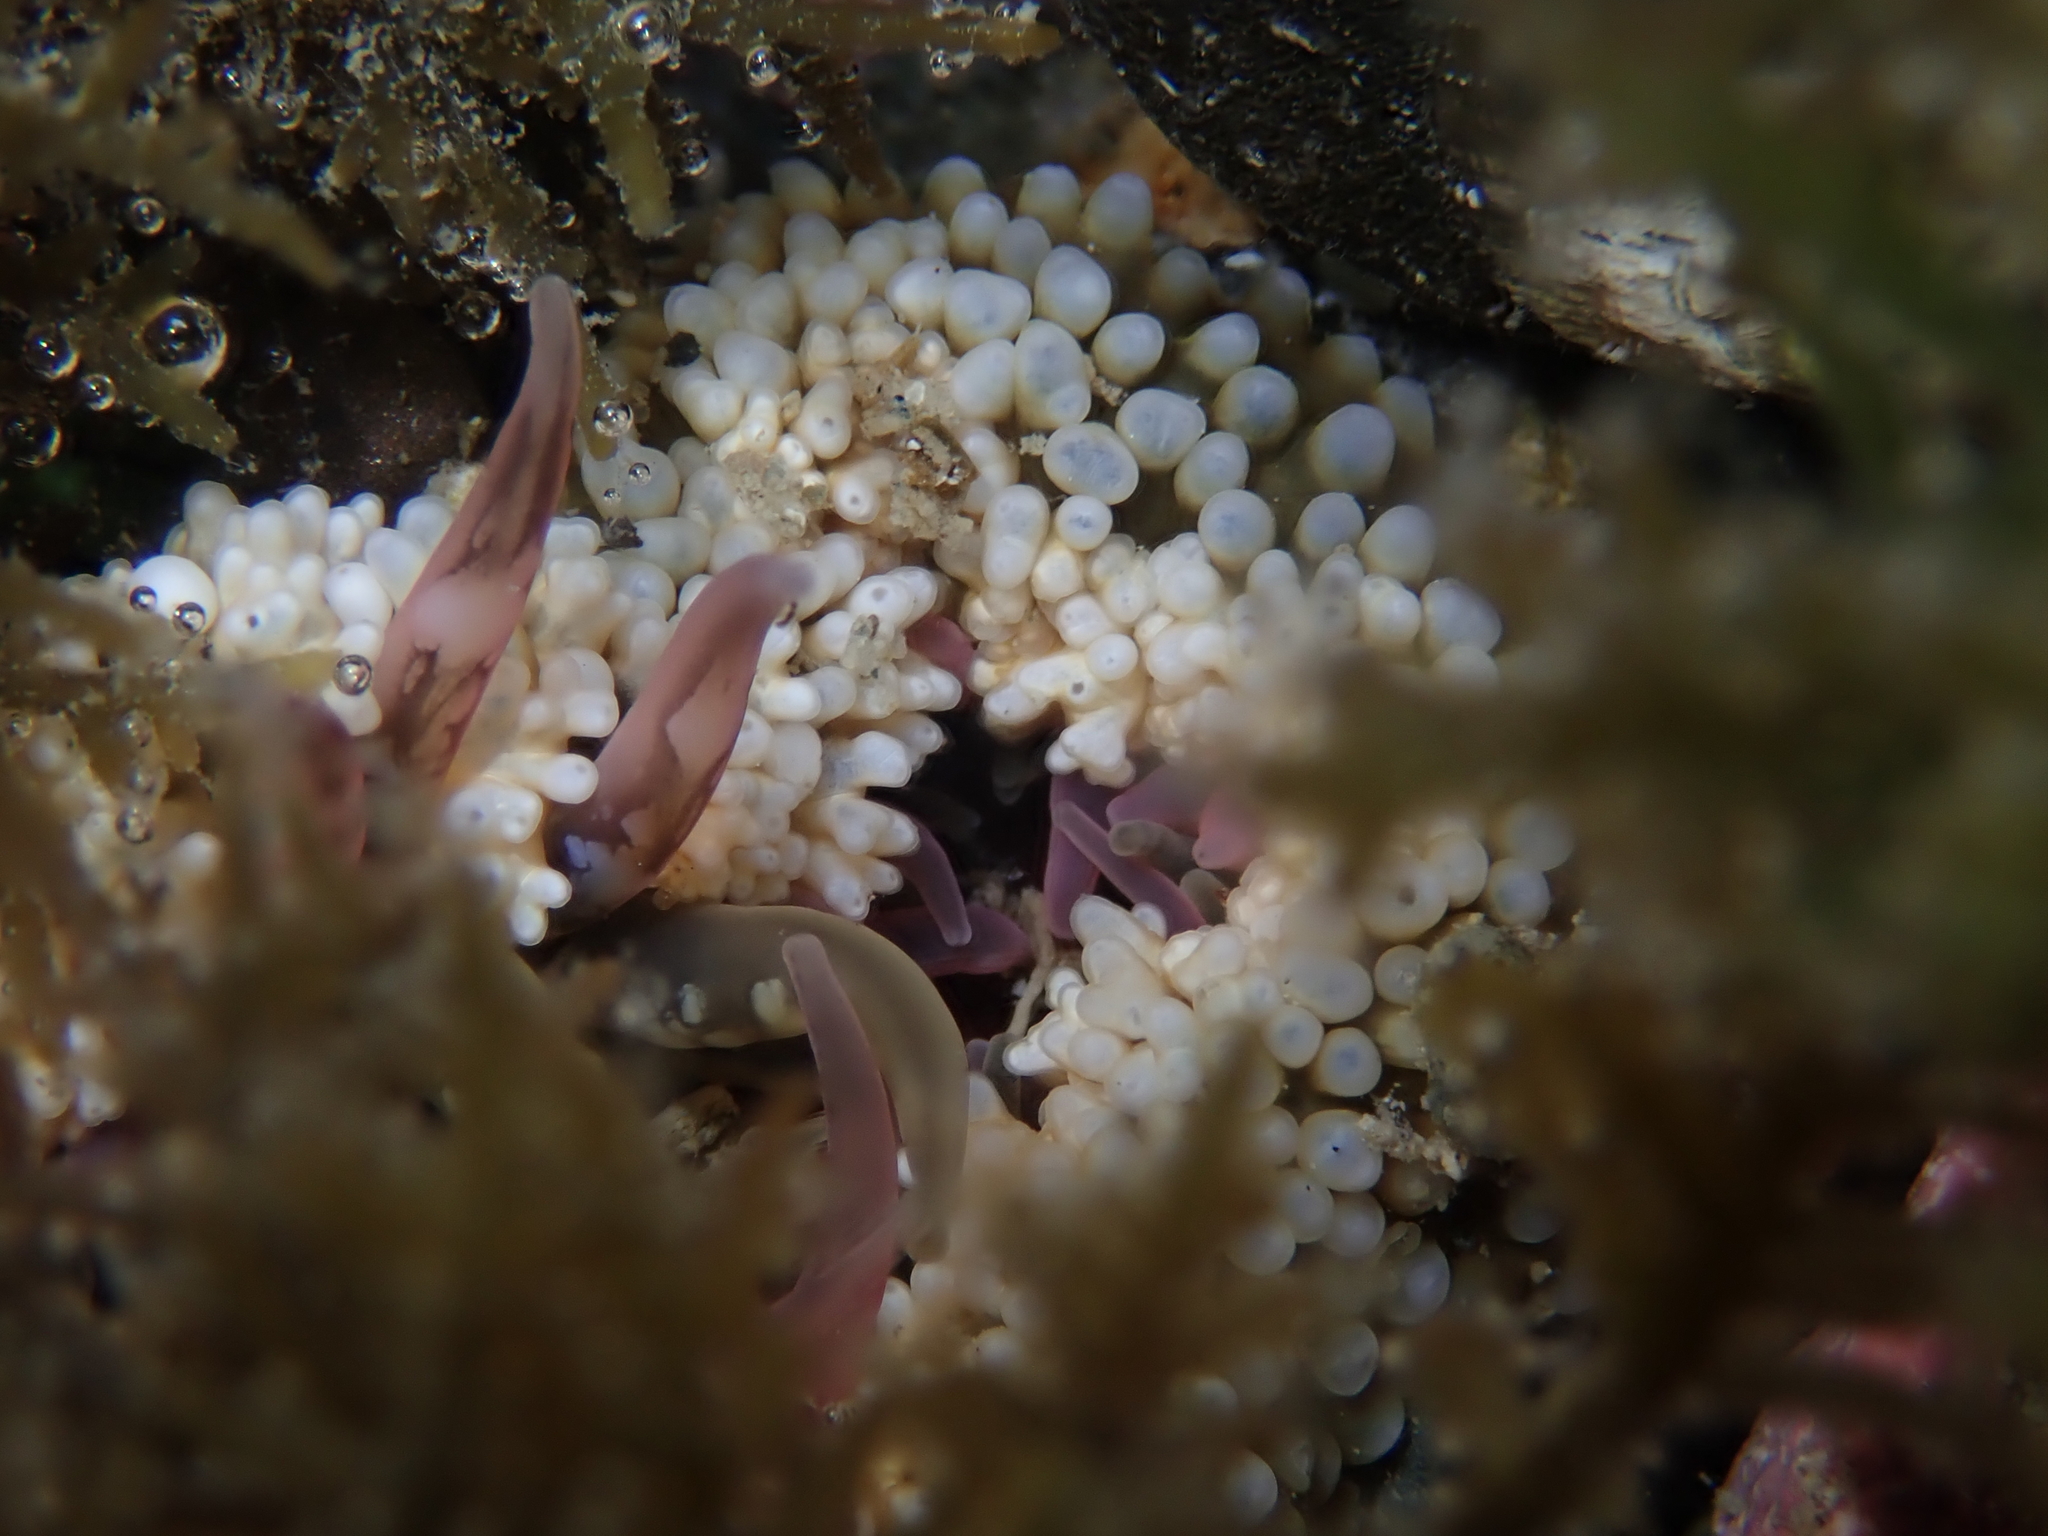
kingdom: Animalia
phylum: Cnidaria
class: Anthozoa
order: Actiniaria
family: Actiniidae
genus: Oulactis
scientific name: Oulactis muscosa
